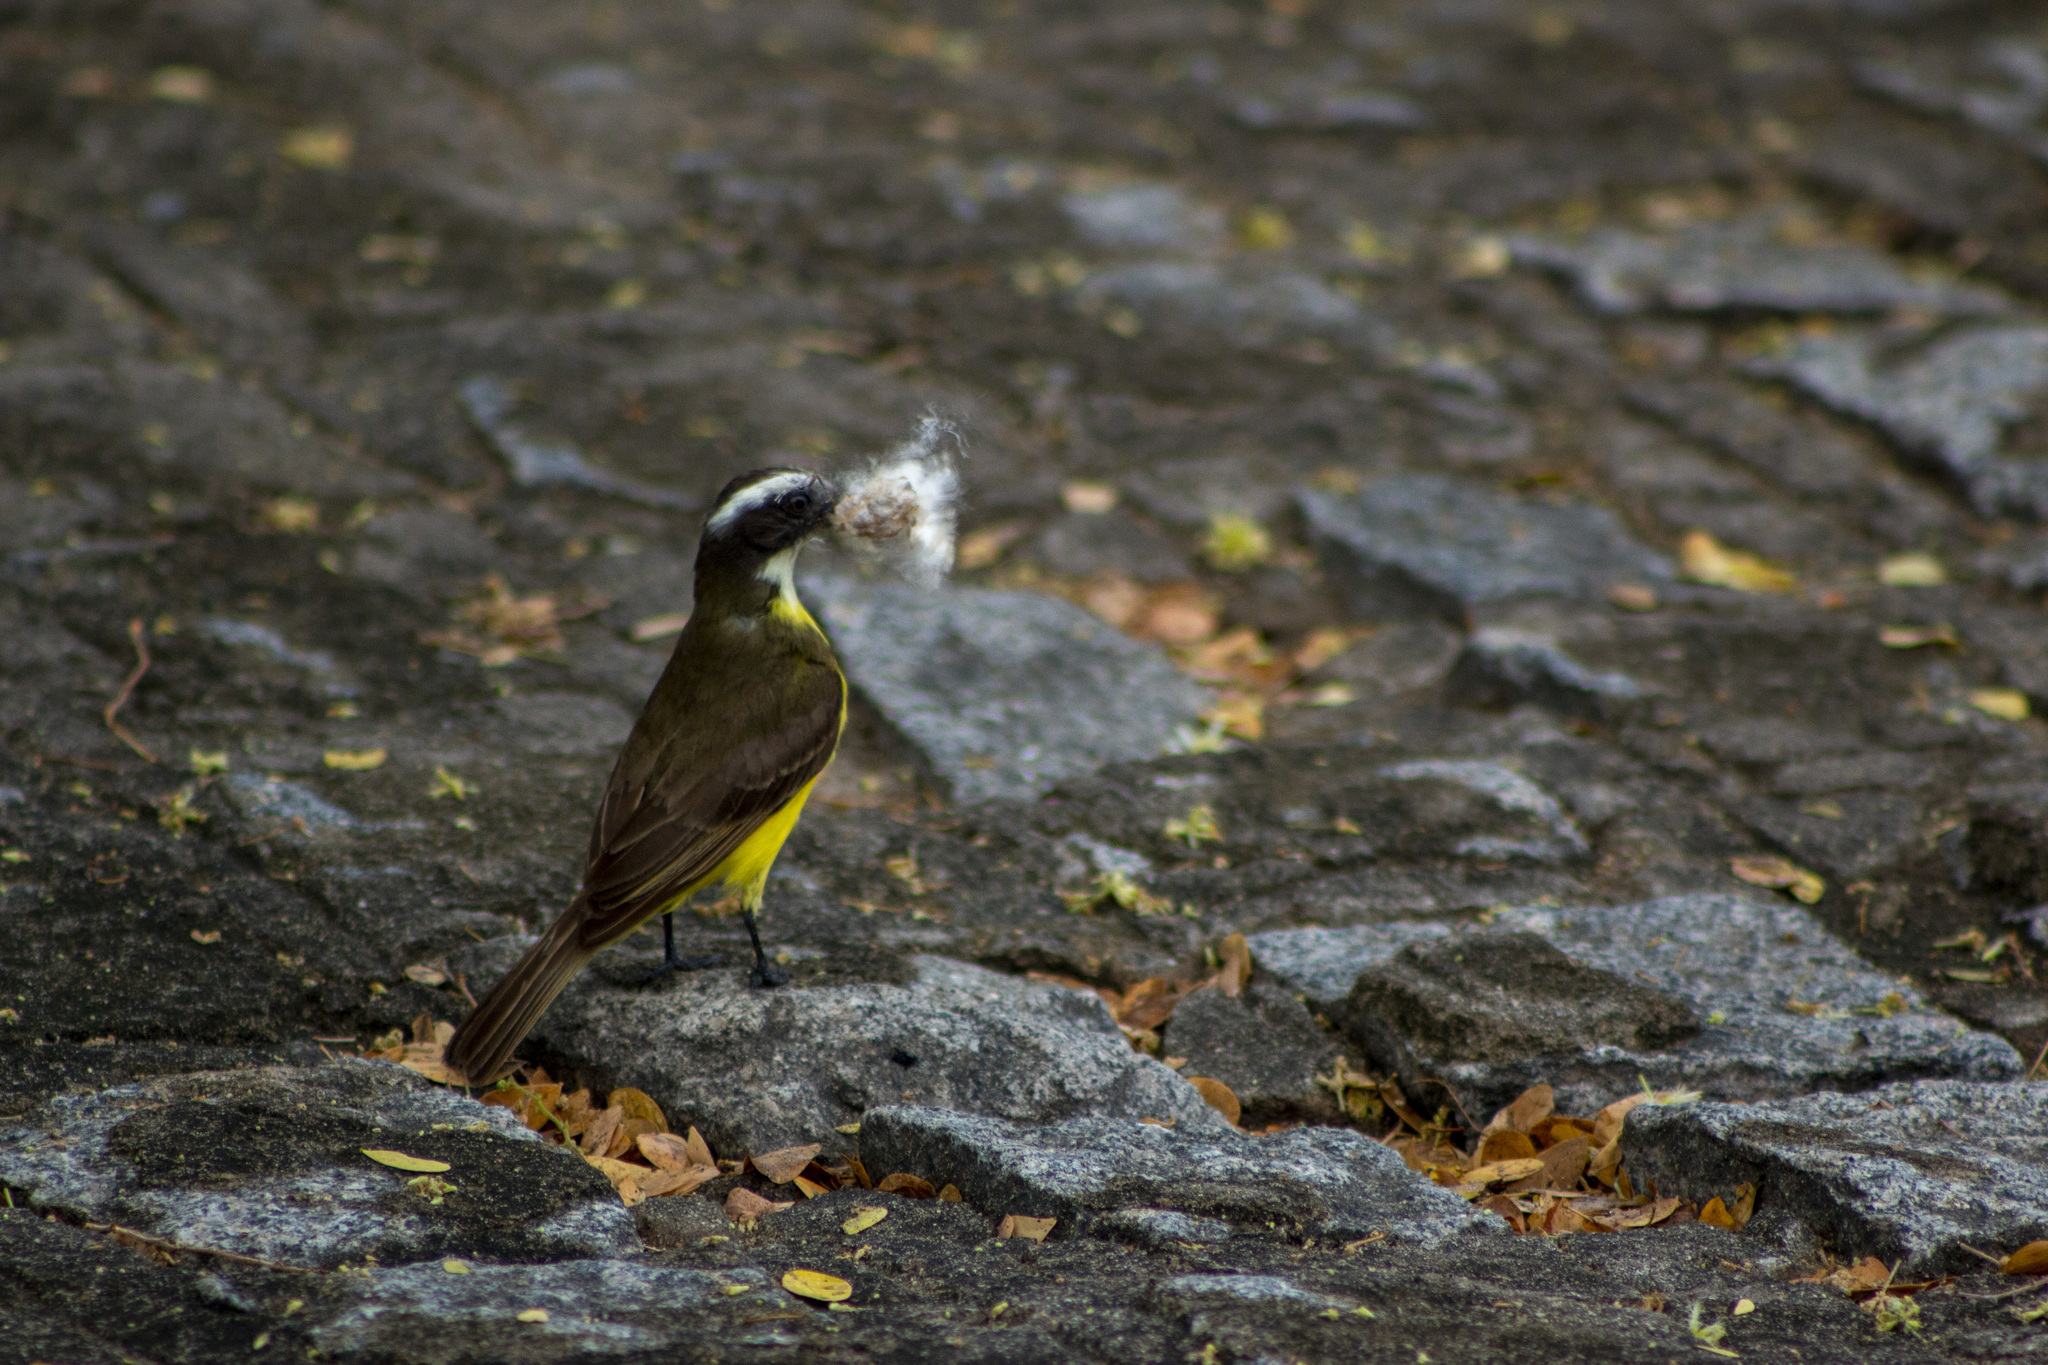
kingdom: Animalia
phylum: Chordata
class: Aves
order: Passeriformes
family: Tyrannidae
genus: Myiozetetes
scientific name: Myiozetetes similis
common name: Social flycatcher
